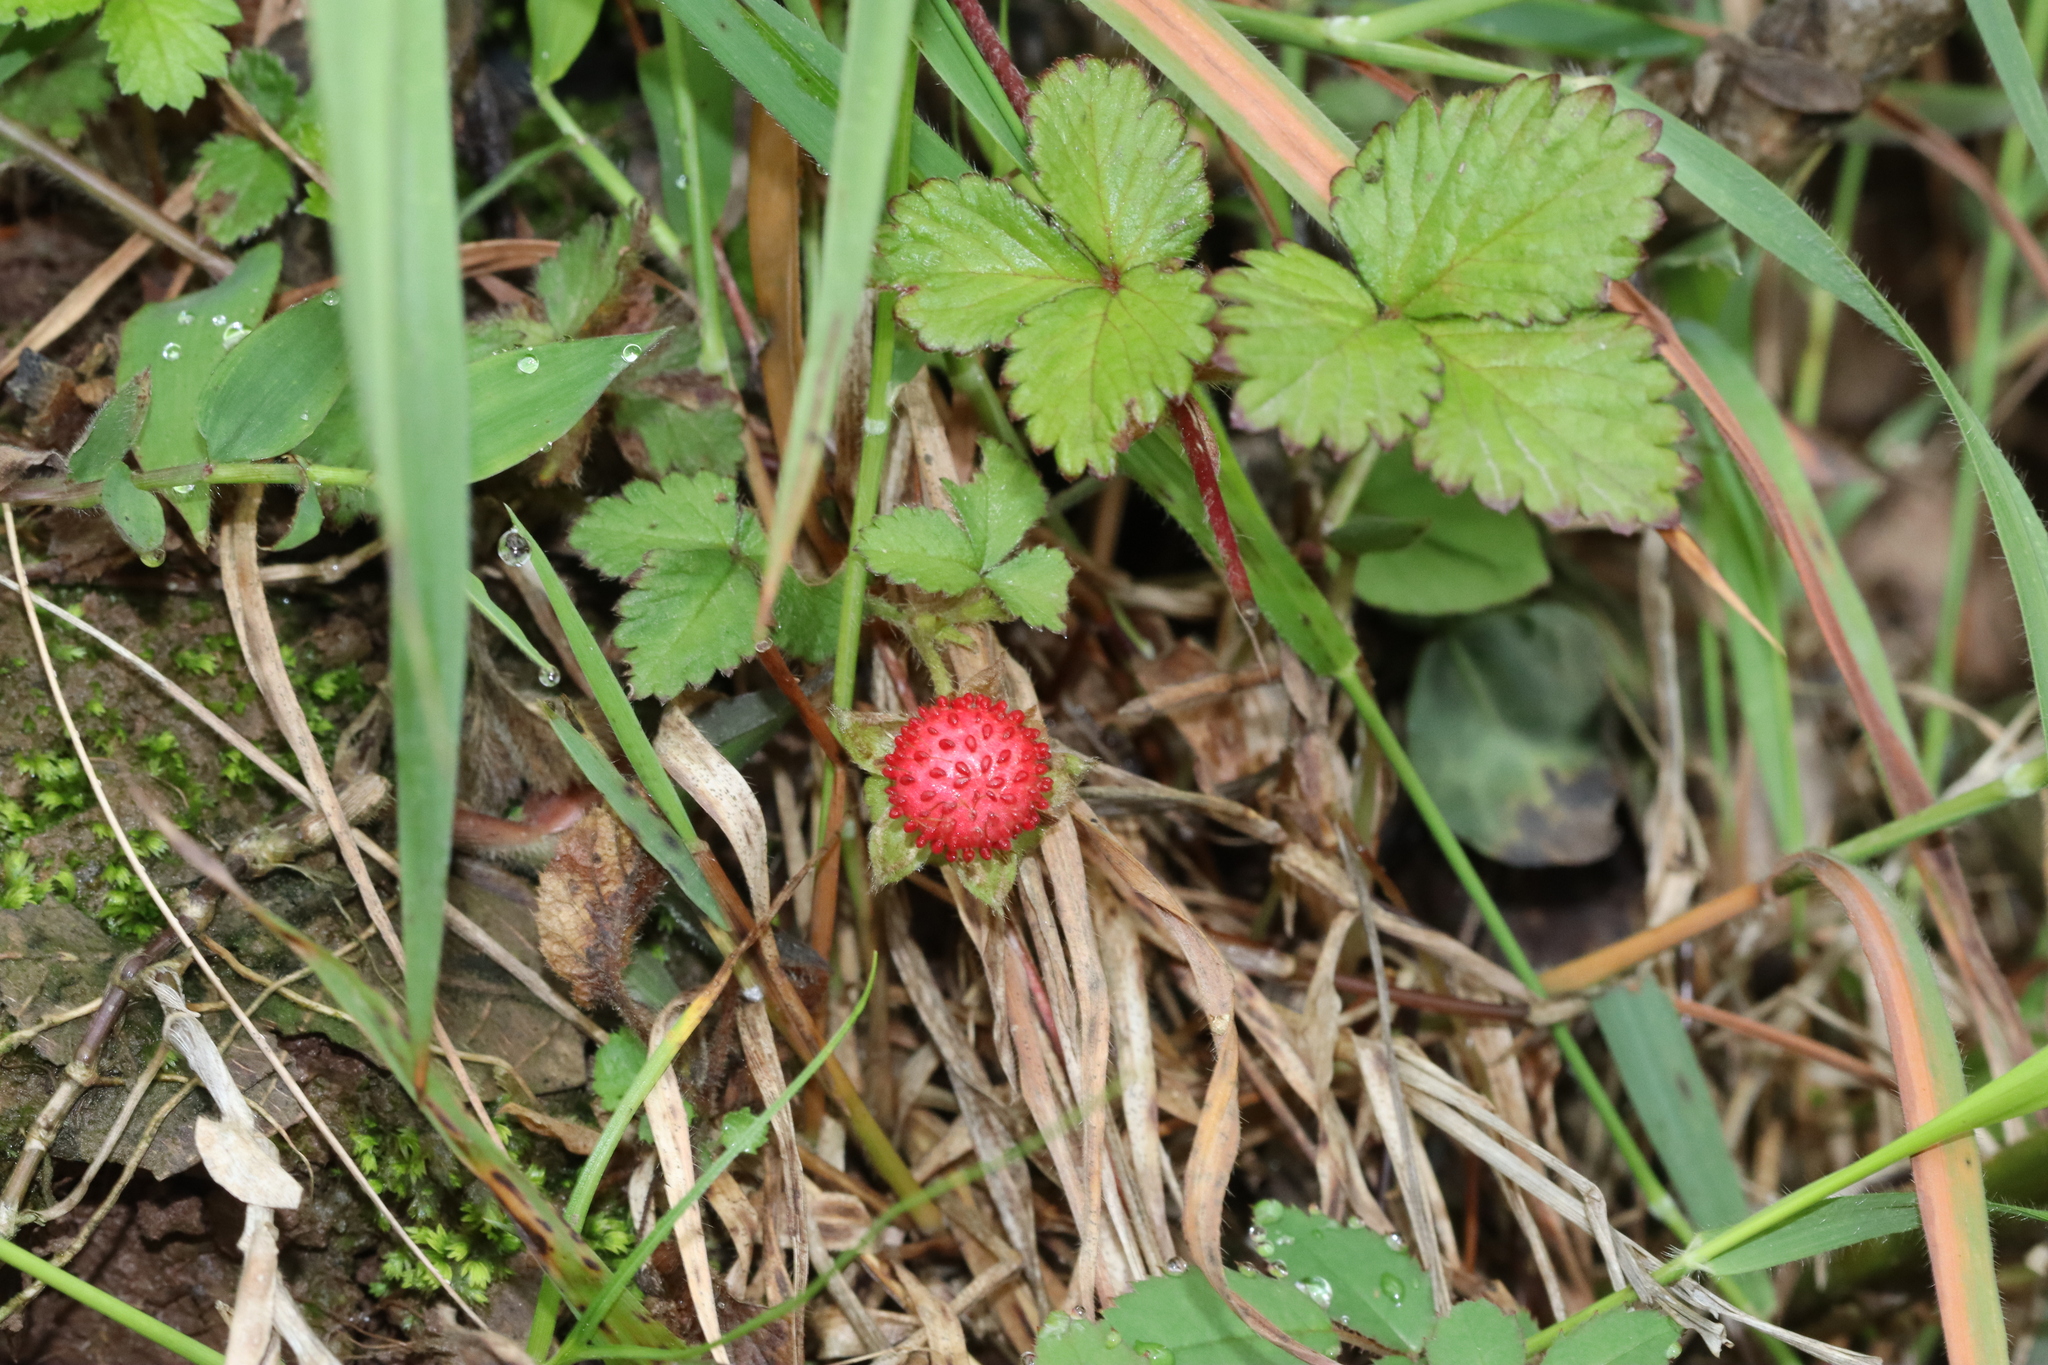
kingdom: Plantae
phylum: Tracheophyta
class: Magnoliopsida
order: Rosales
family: Rosaceae
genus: Potentilla
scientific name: Potentilla indica
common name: Yellow-flowered strawberry
